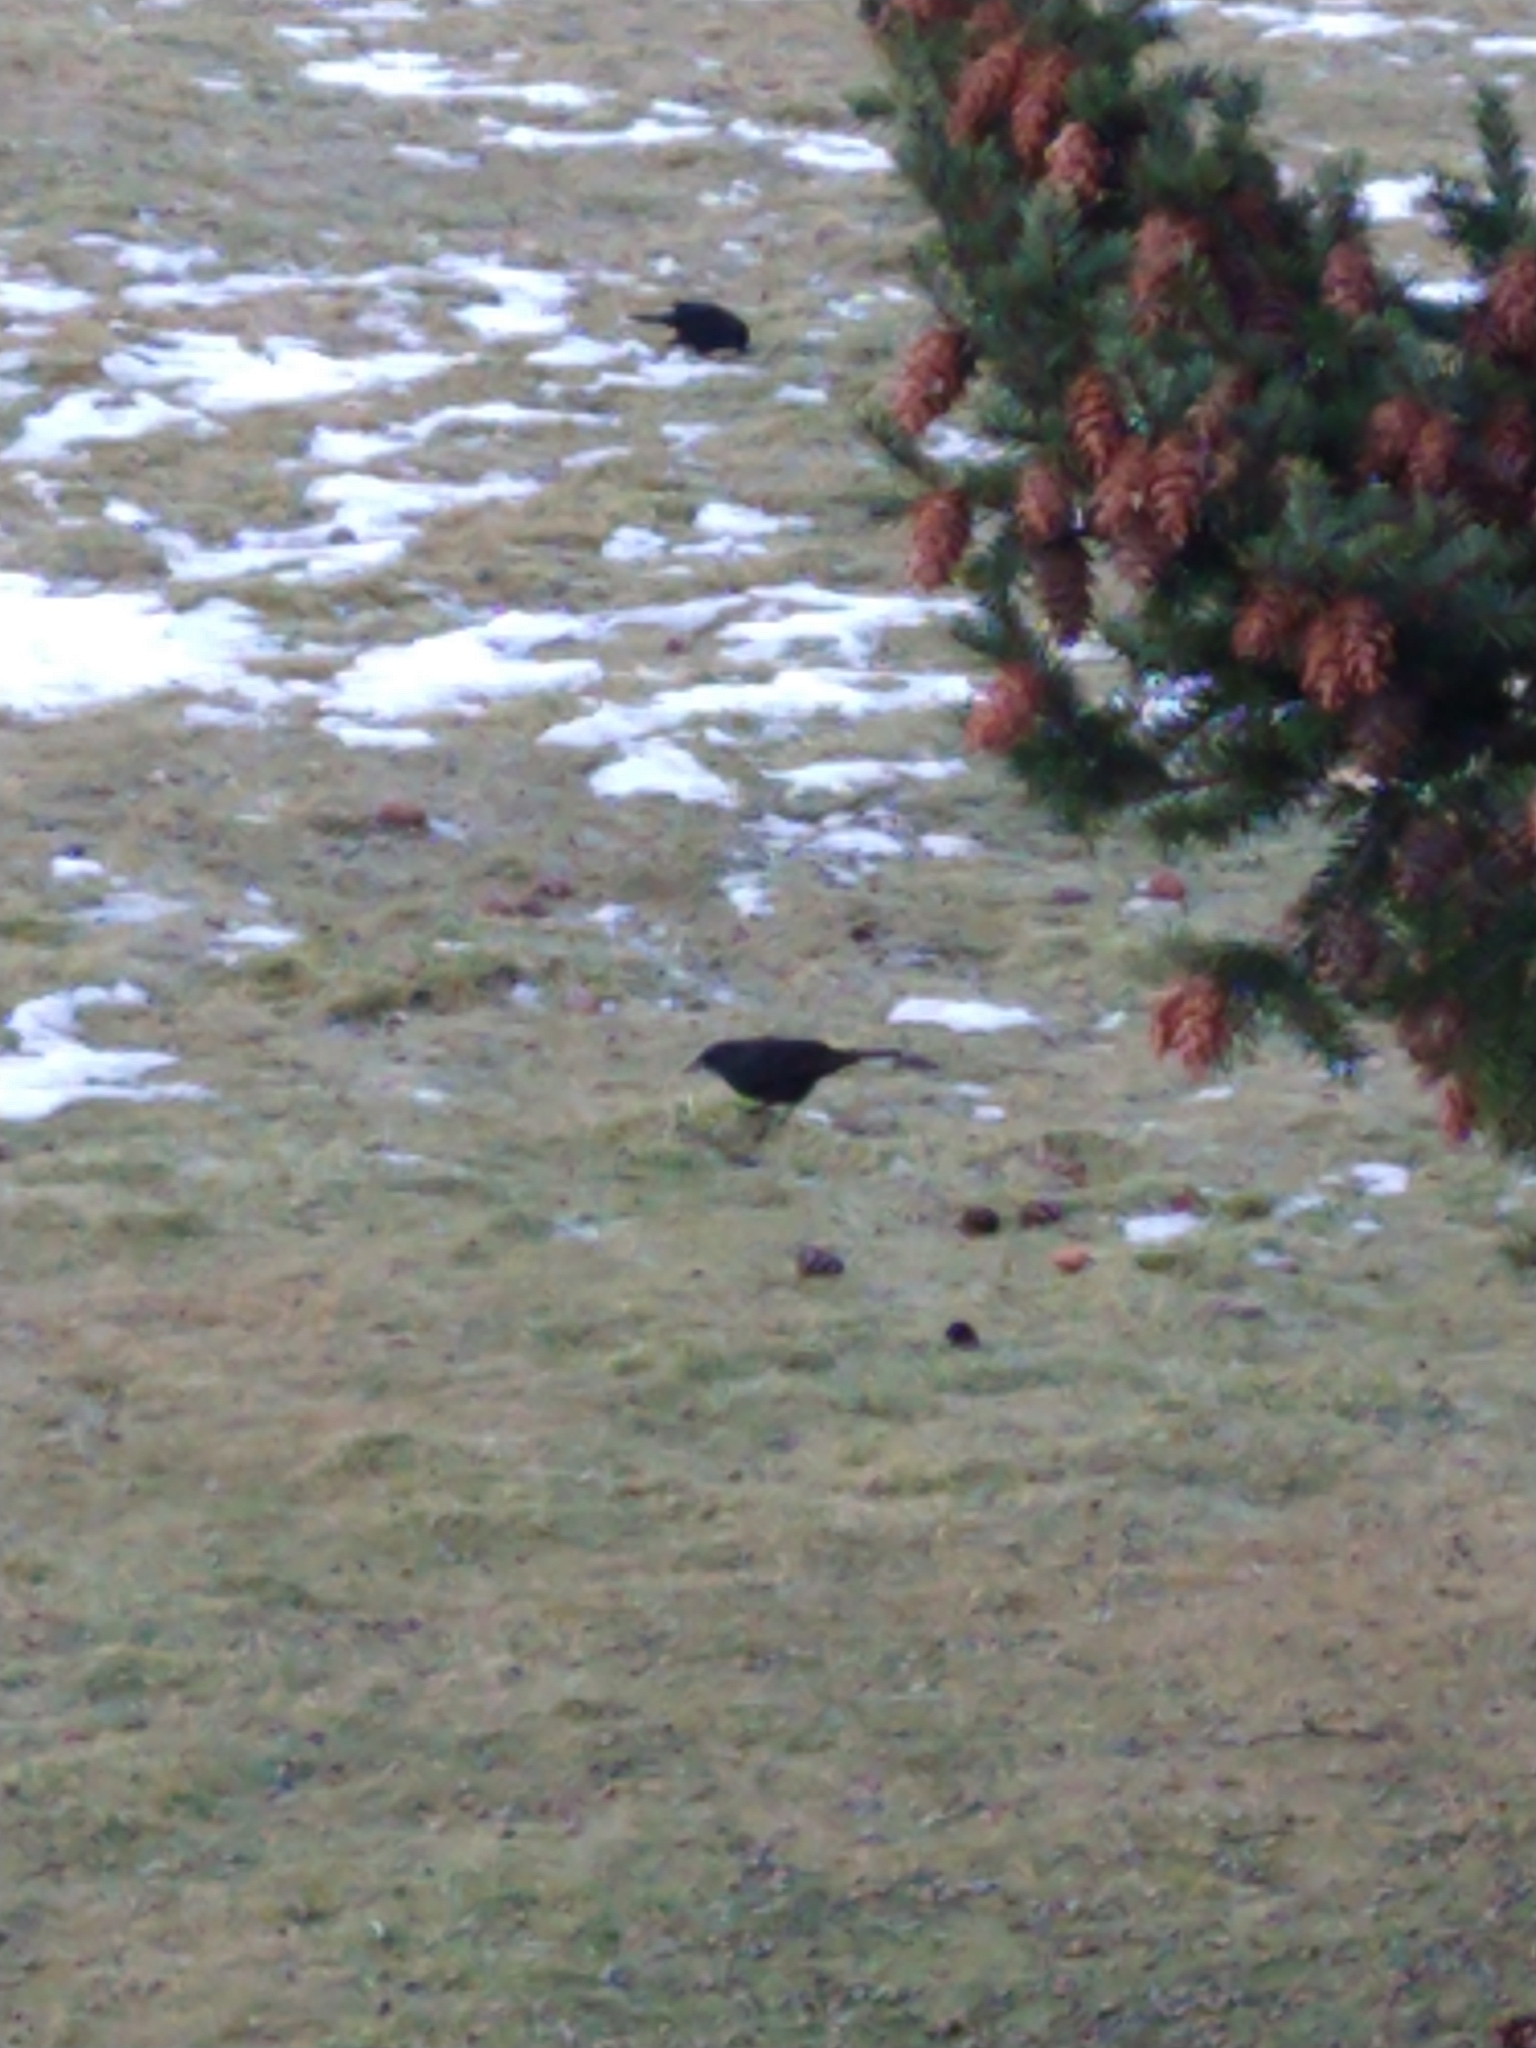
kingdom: Animalia
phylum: Chordata
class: Aves
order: Passeriformes
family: Icteridae
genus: Curaeus
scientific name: Curaeus curaeus
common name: Austral blackbird
